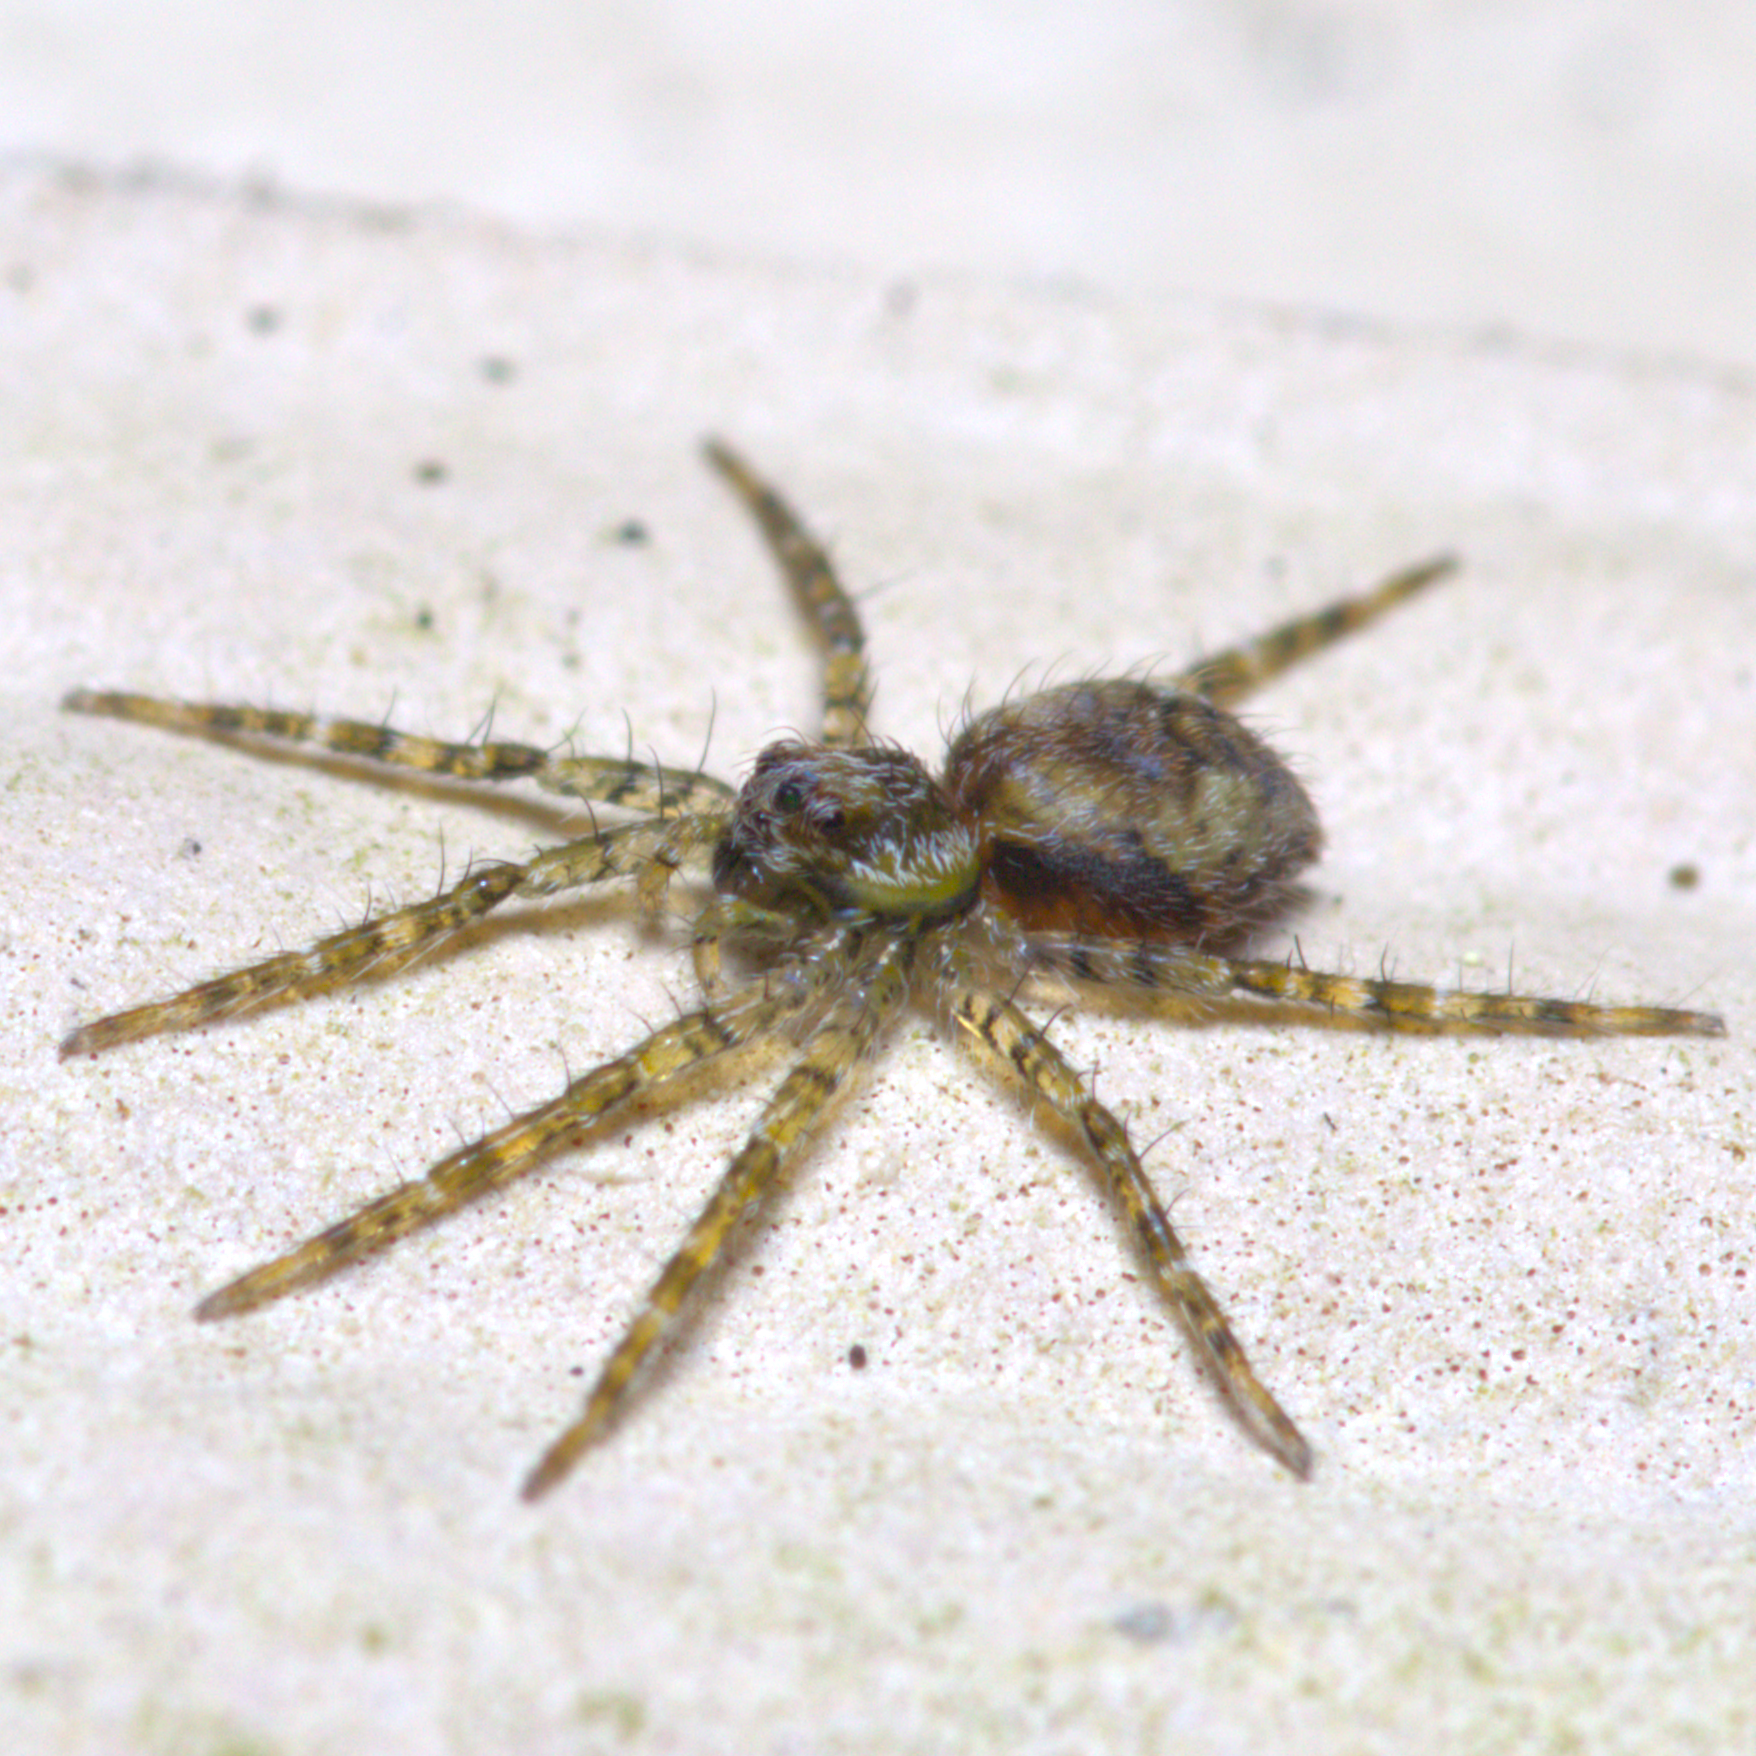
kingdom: Animalia
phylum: Arthropoda
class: Arachnida
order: Araneae
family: Pisauridae
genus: Dolomedes
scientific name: Dolomedes albineus
